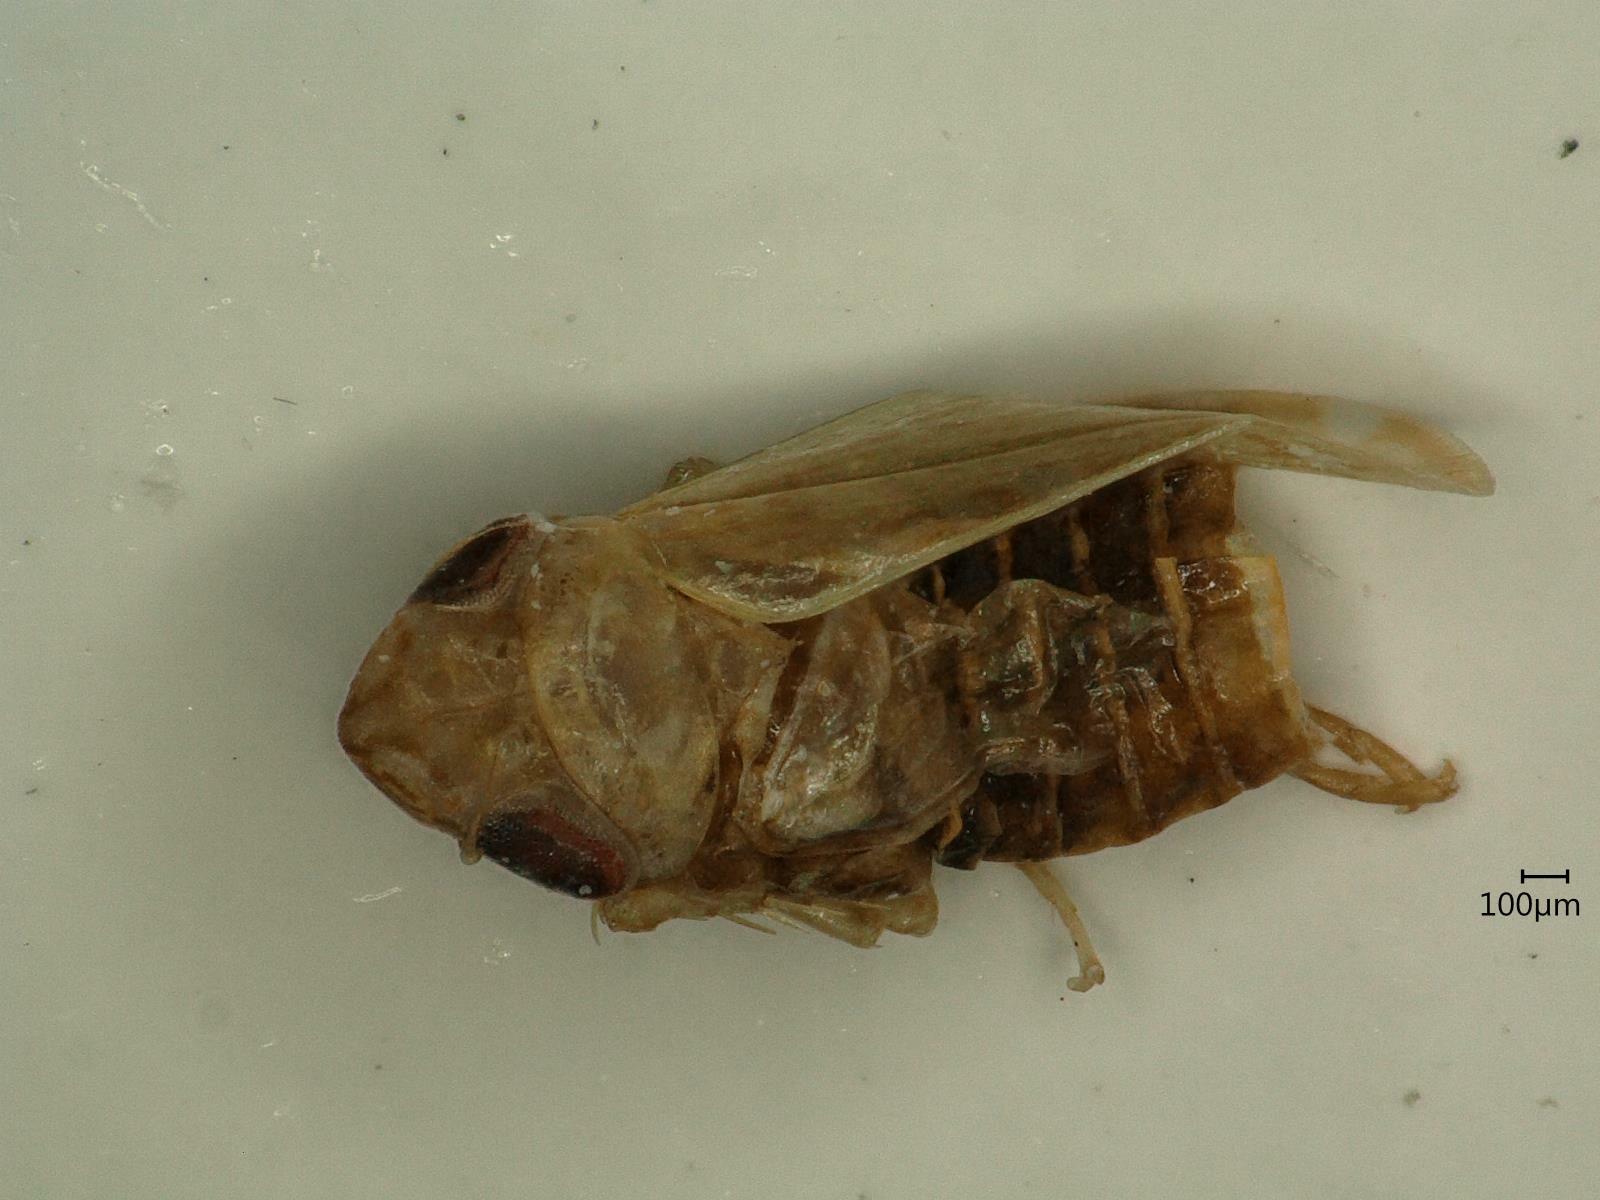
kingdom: Animalia
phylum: Arthropoda
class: Insecta
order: Hemiptera
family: Cicadellidae
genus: Jassargus
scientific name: Jassargus distinguendus
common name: Leafhopper
